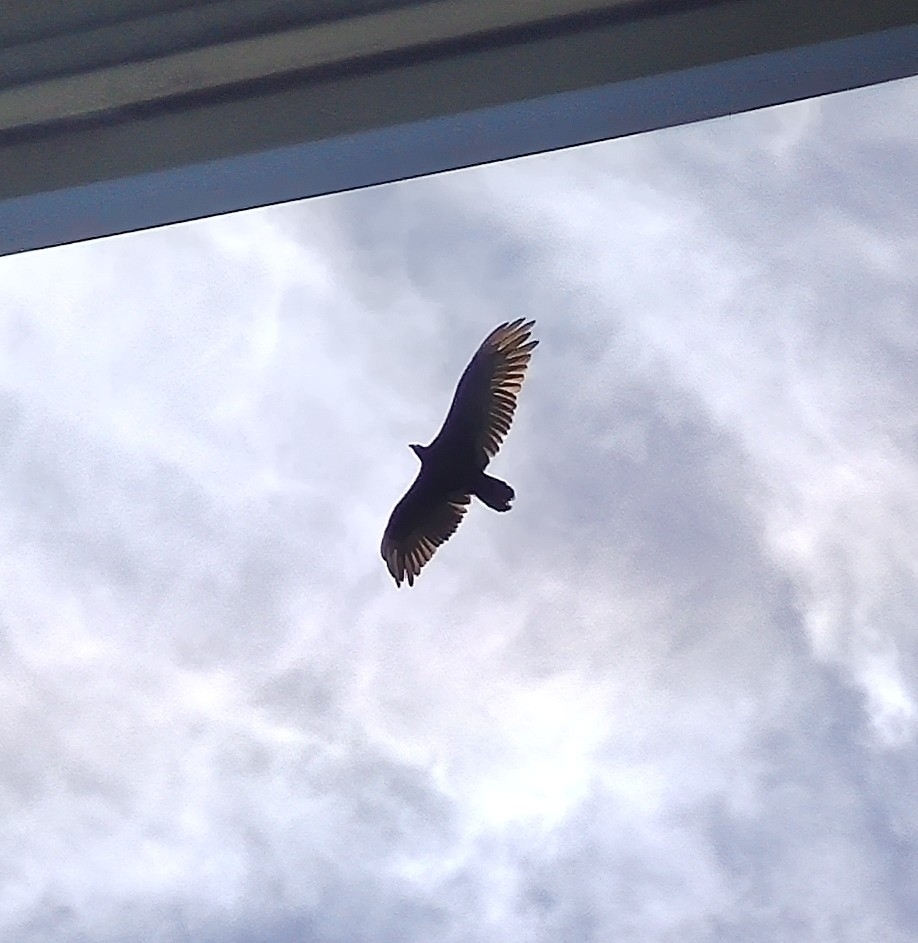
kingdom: Animalia
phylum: Chordata
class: Aves
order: Accipitriformes
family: Cathartidae
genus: Cathartes
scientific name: Cathartes aura
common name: Turkey vulture
